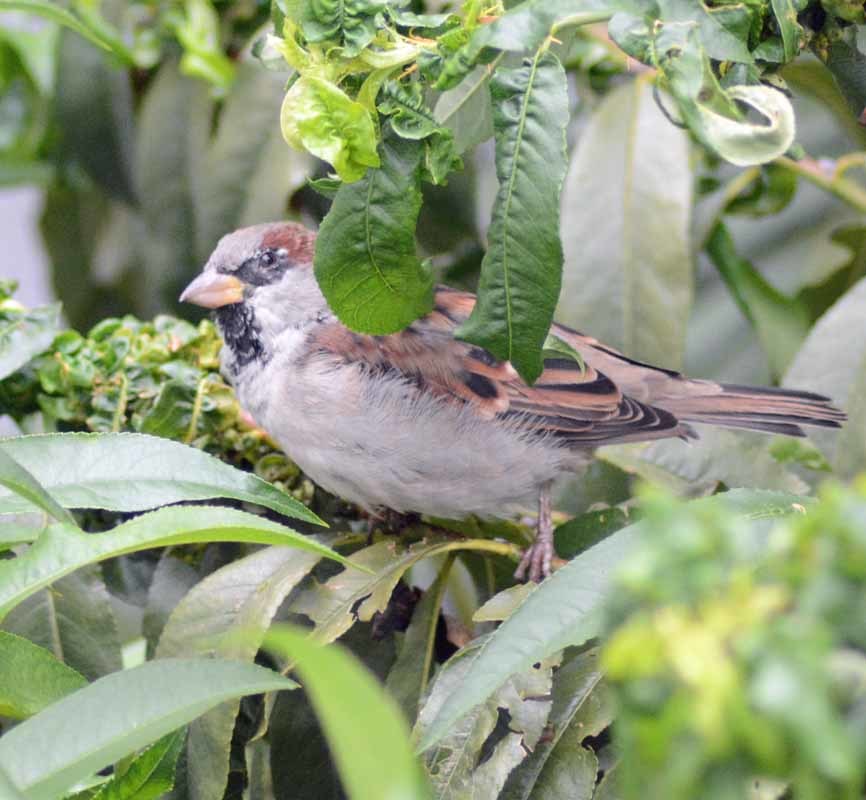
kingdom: Animalia
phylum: Chordata
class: Aves
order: Passeriformes
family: Passeridae
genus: Passer
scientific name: Passer domesticus
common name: House sparrow
